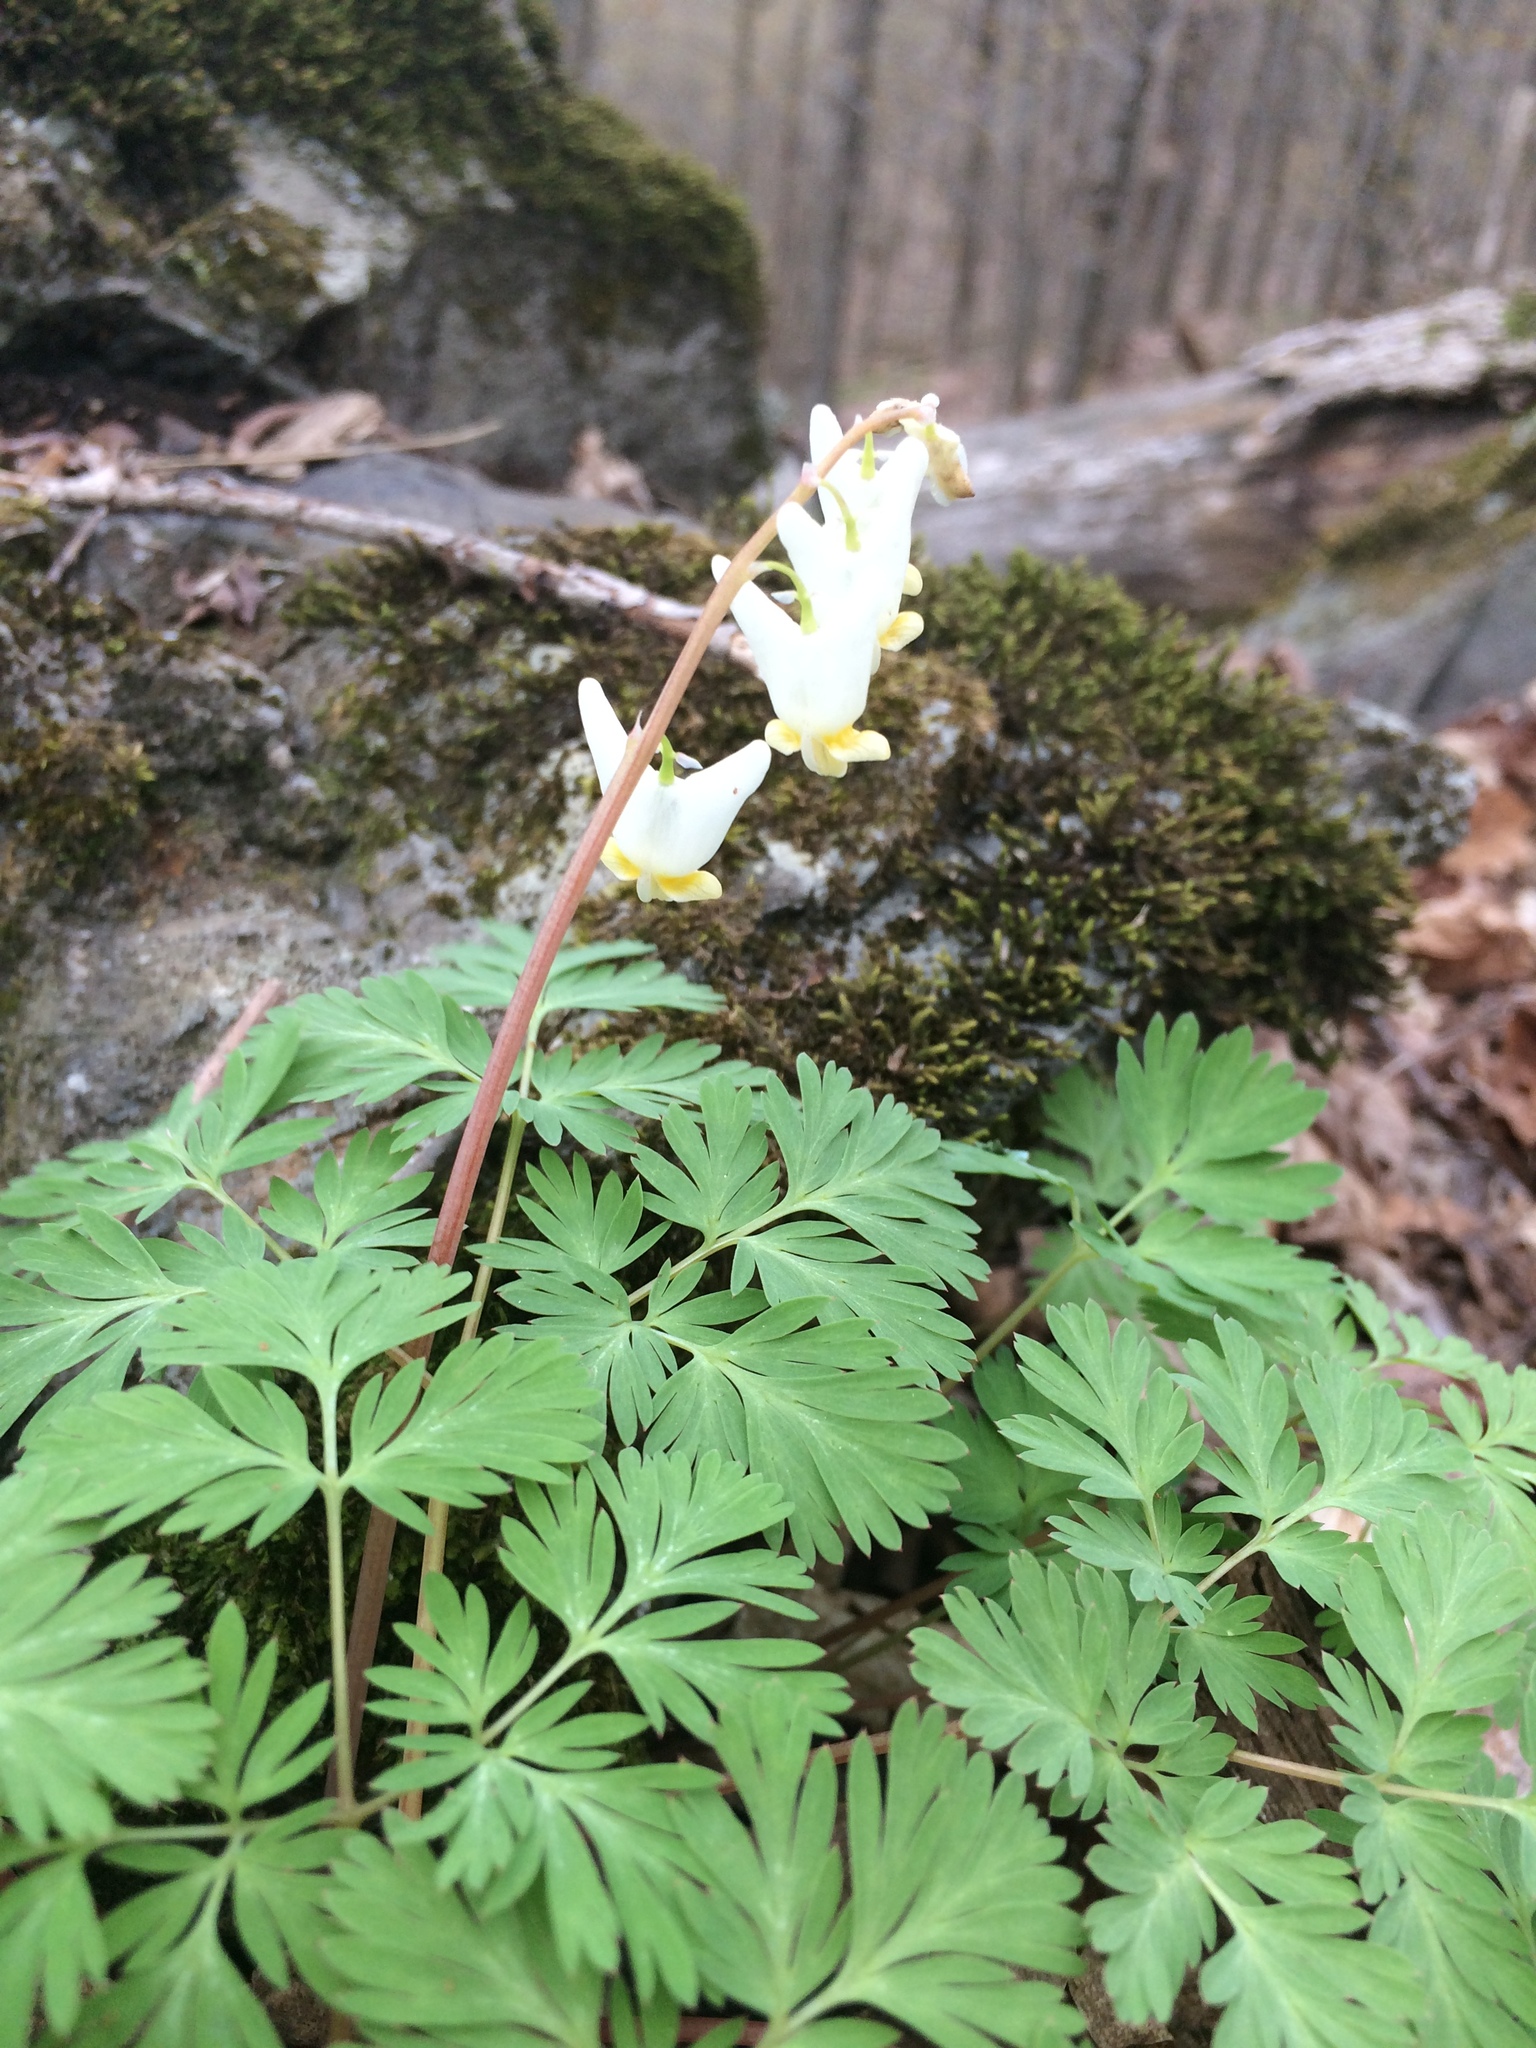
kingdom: Plantae
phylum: Tracheophyta
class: Magnoliopsida
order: Ranunculales
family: Papaveraceae
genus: Dicentra
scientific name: Dicentra cucullaria
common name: Dutchman's breeches
